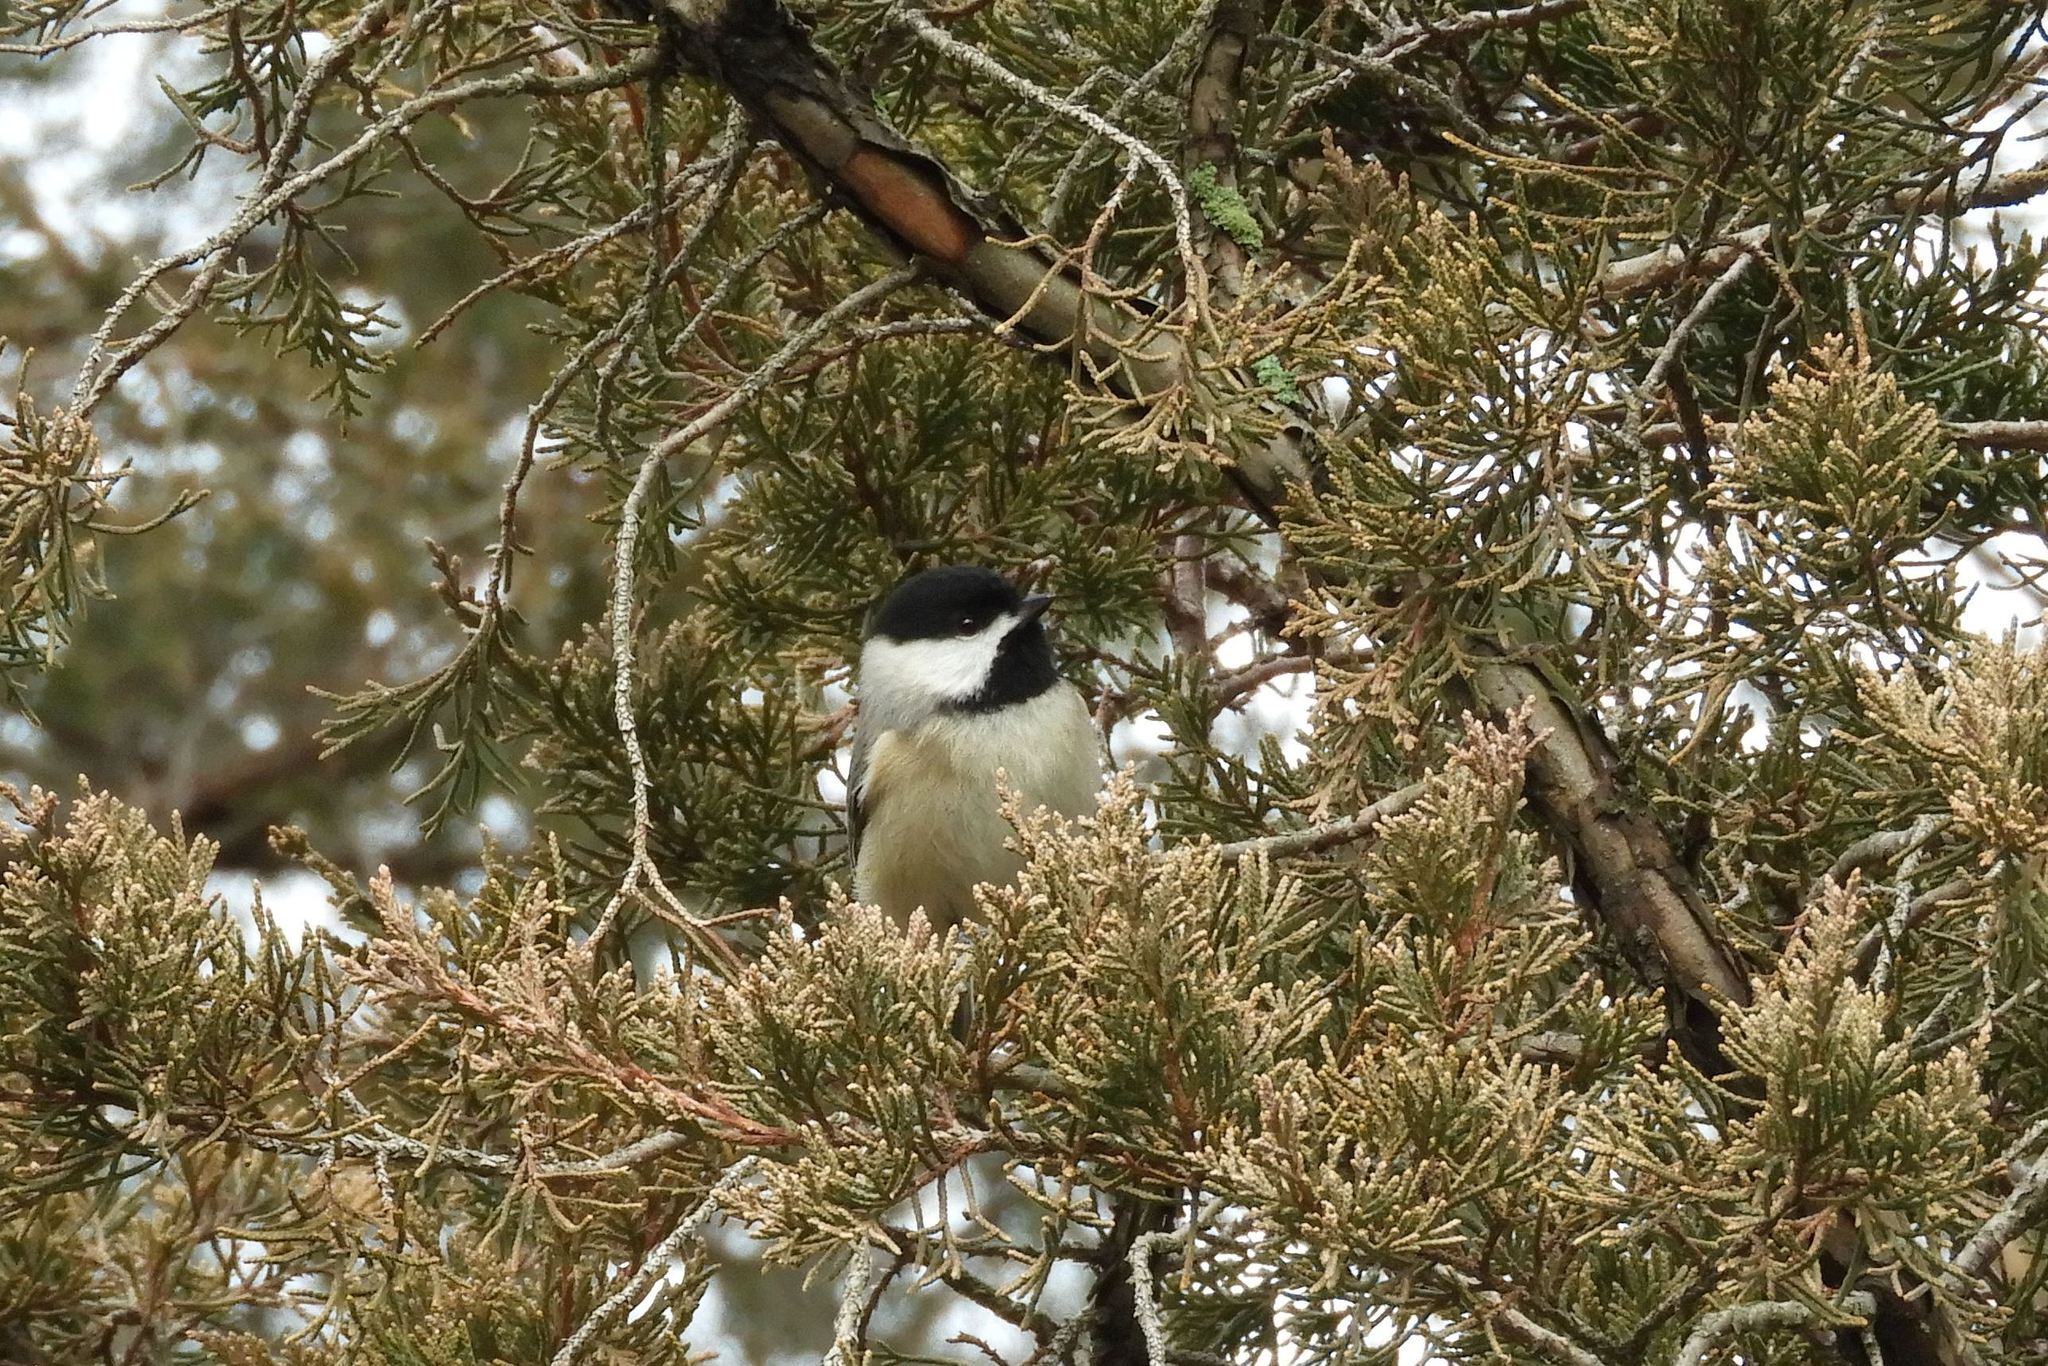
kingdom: Animalia
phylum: Chordata
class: Aves
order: Passeriformes
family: Paridae
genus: Poecile
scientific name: Poecile carolinensis
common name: Carolina chickadee
